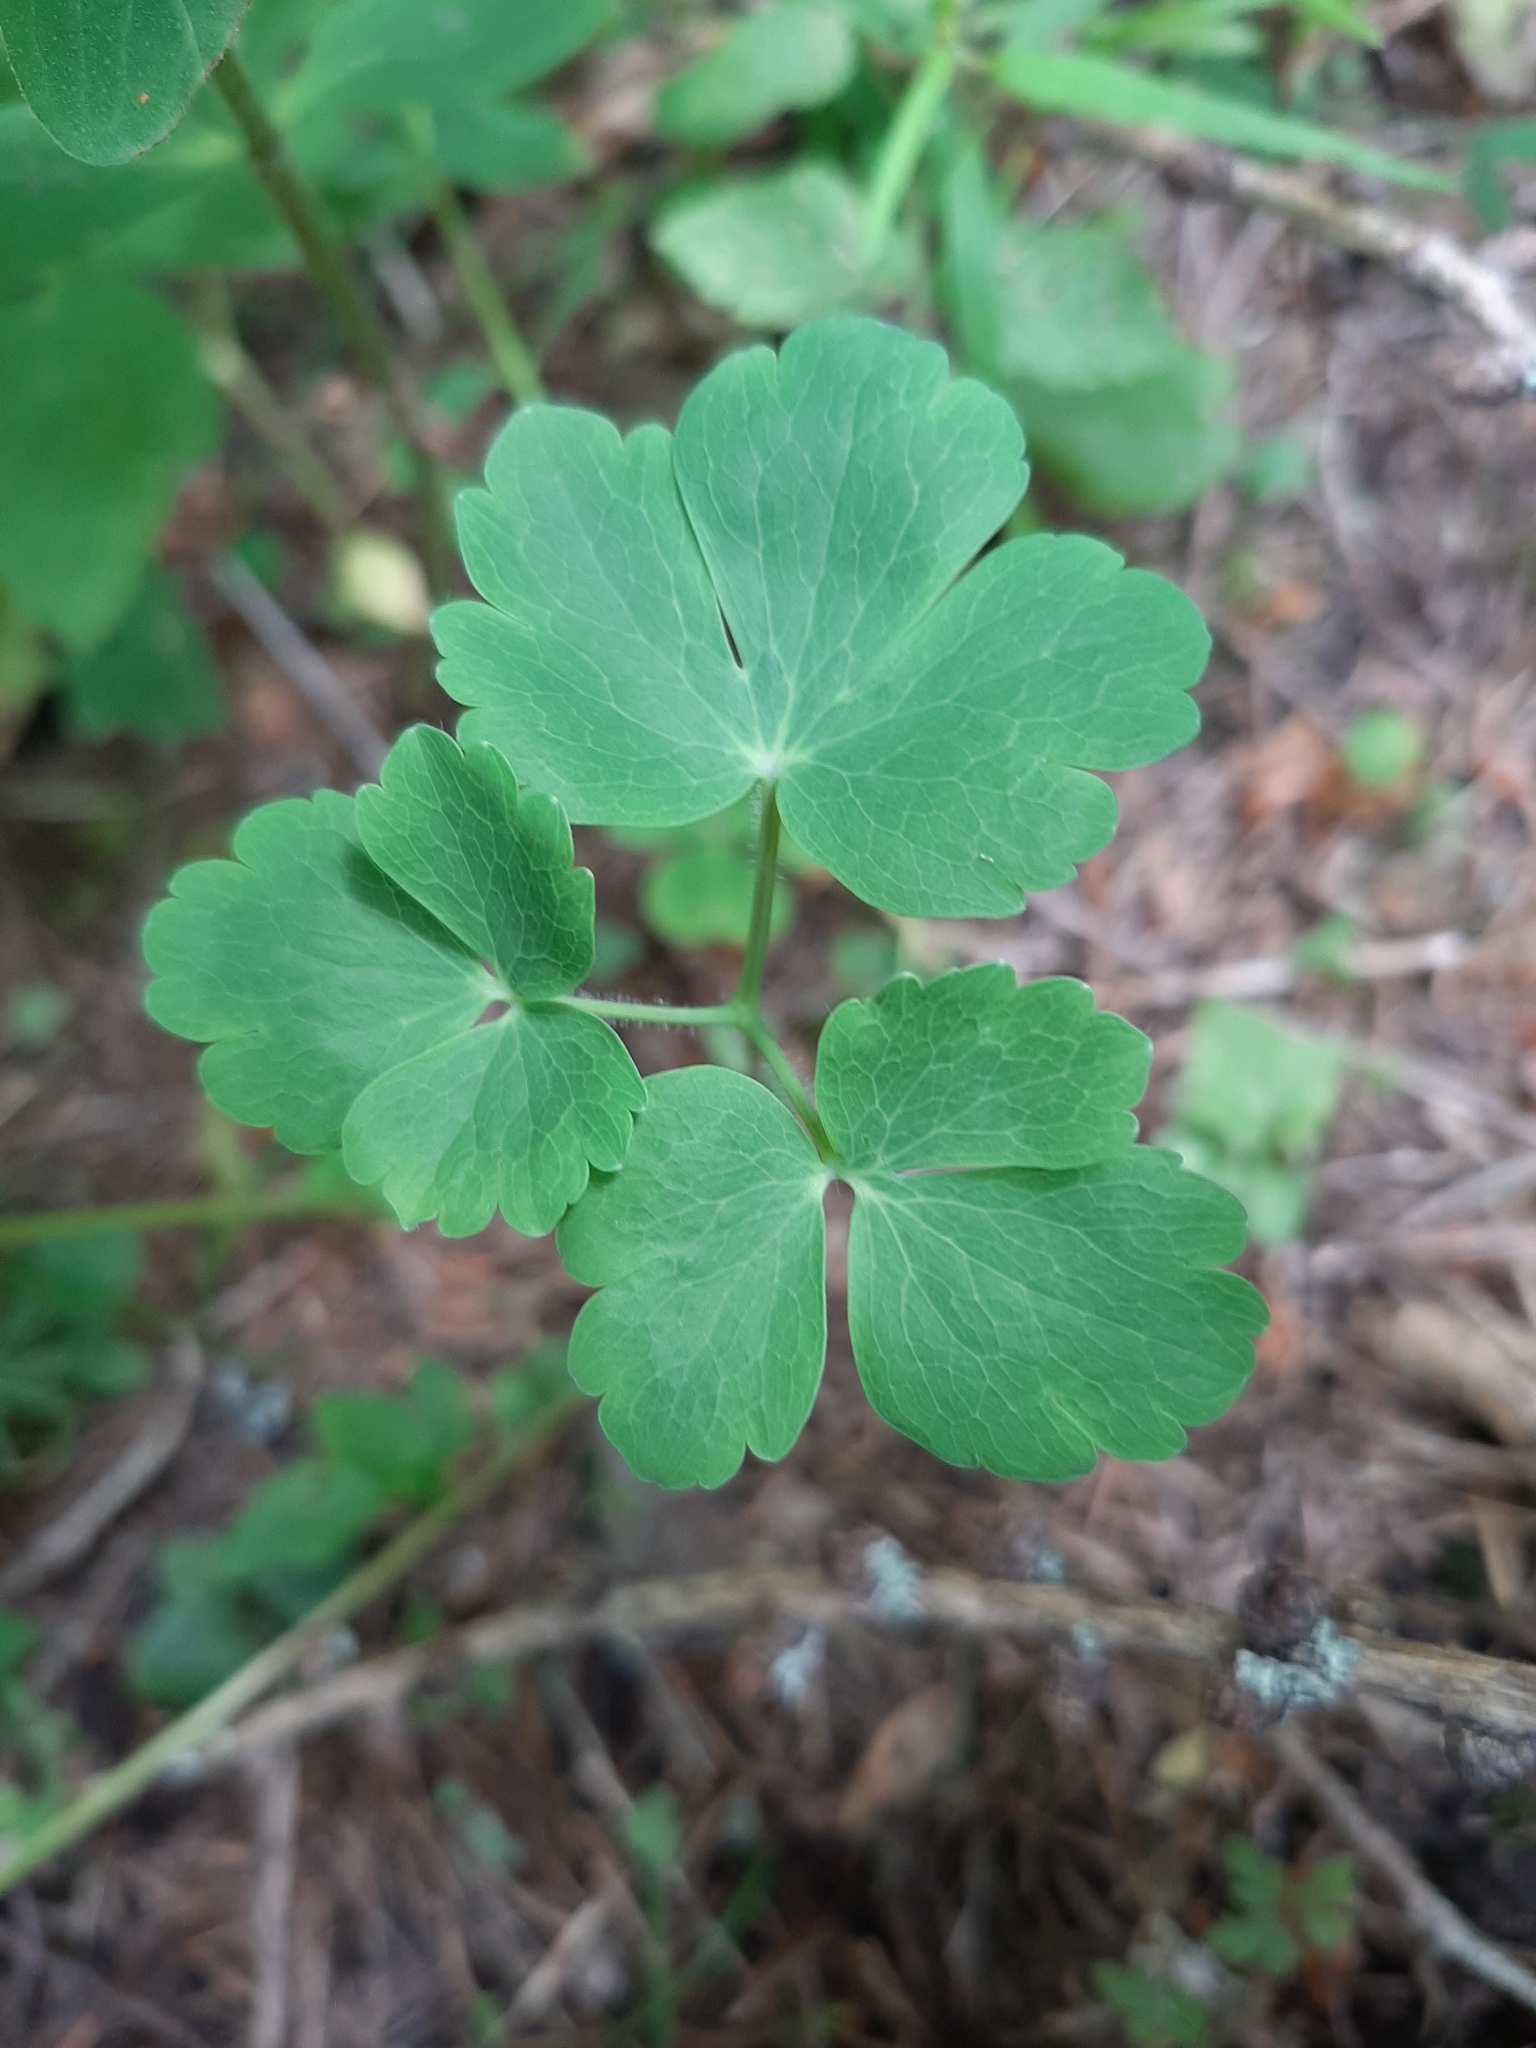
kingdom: Plantae
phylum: Tracheophyta
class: Magnoliopsida
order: Ranunculales
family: Ranunculaceae
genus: Aquilegia
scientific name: Aquilegia vulgaris
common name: Columbine
